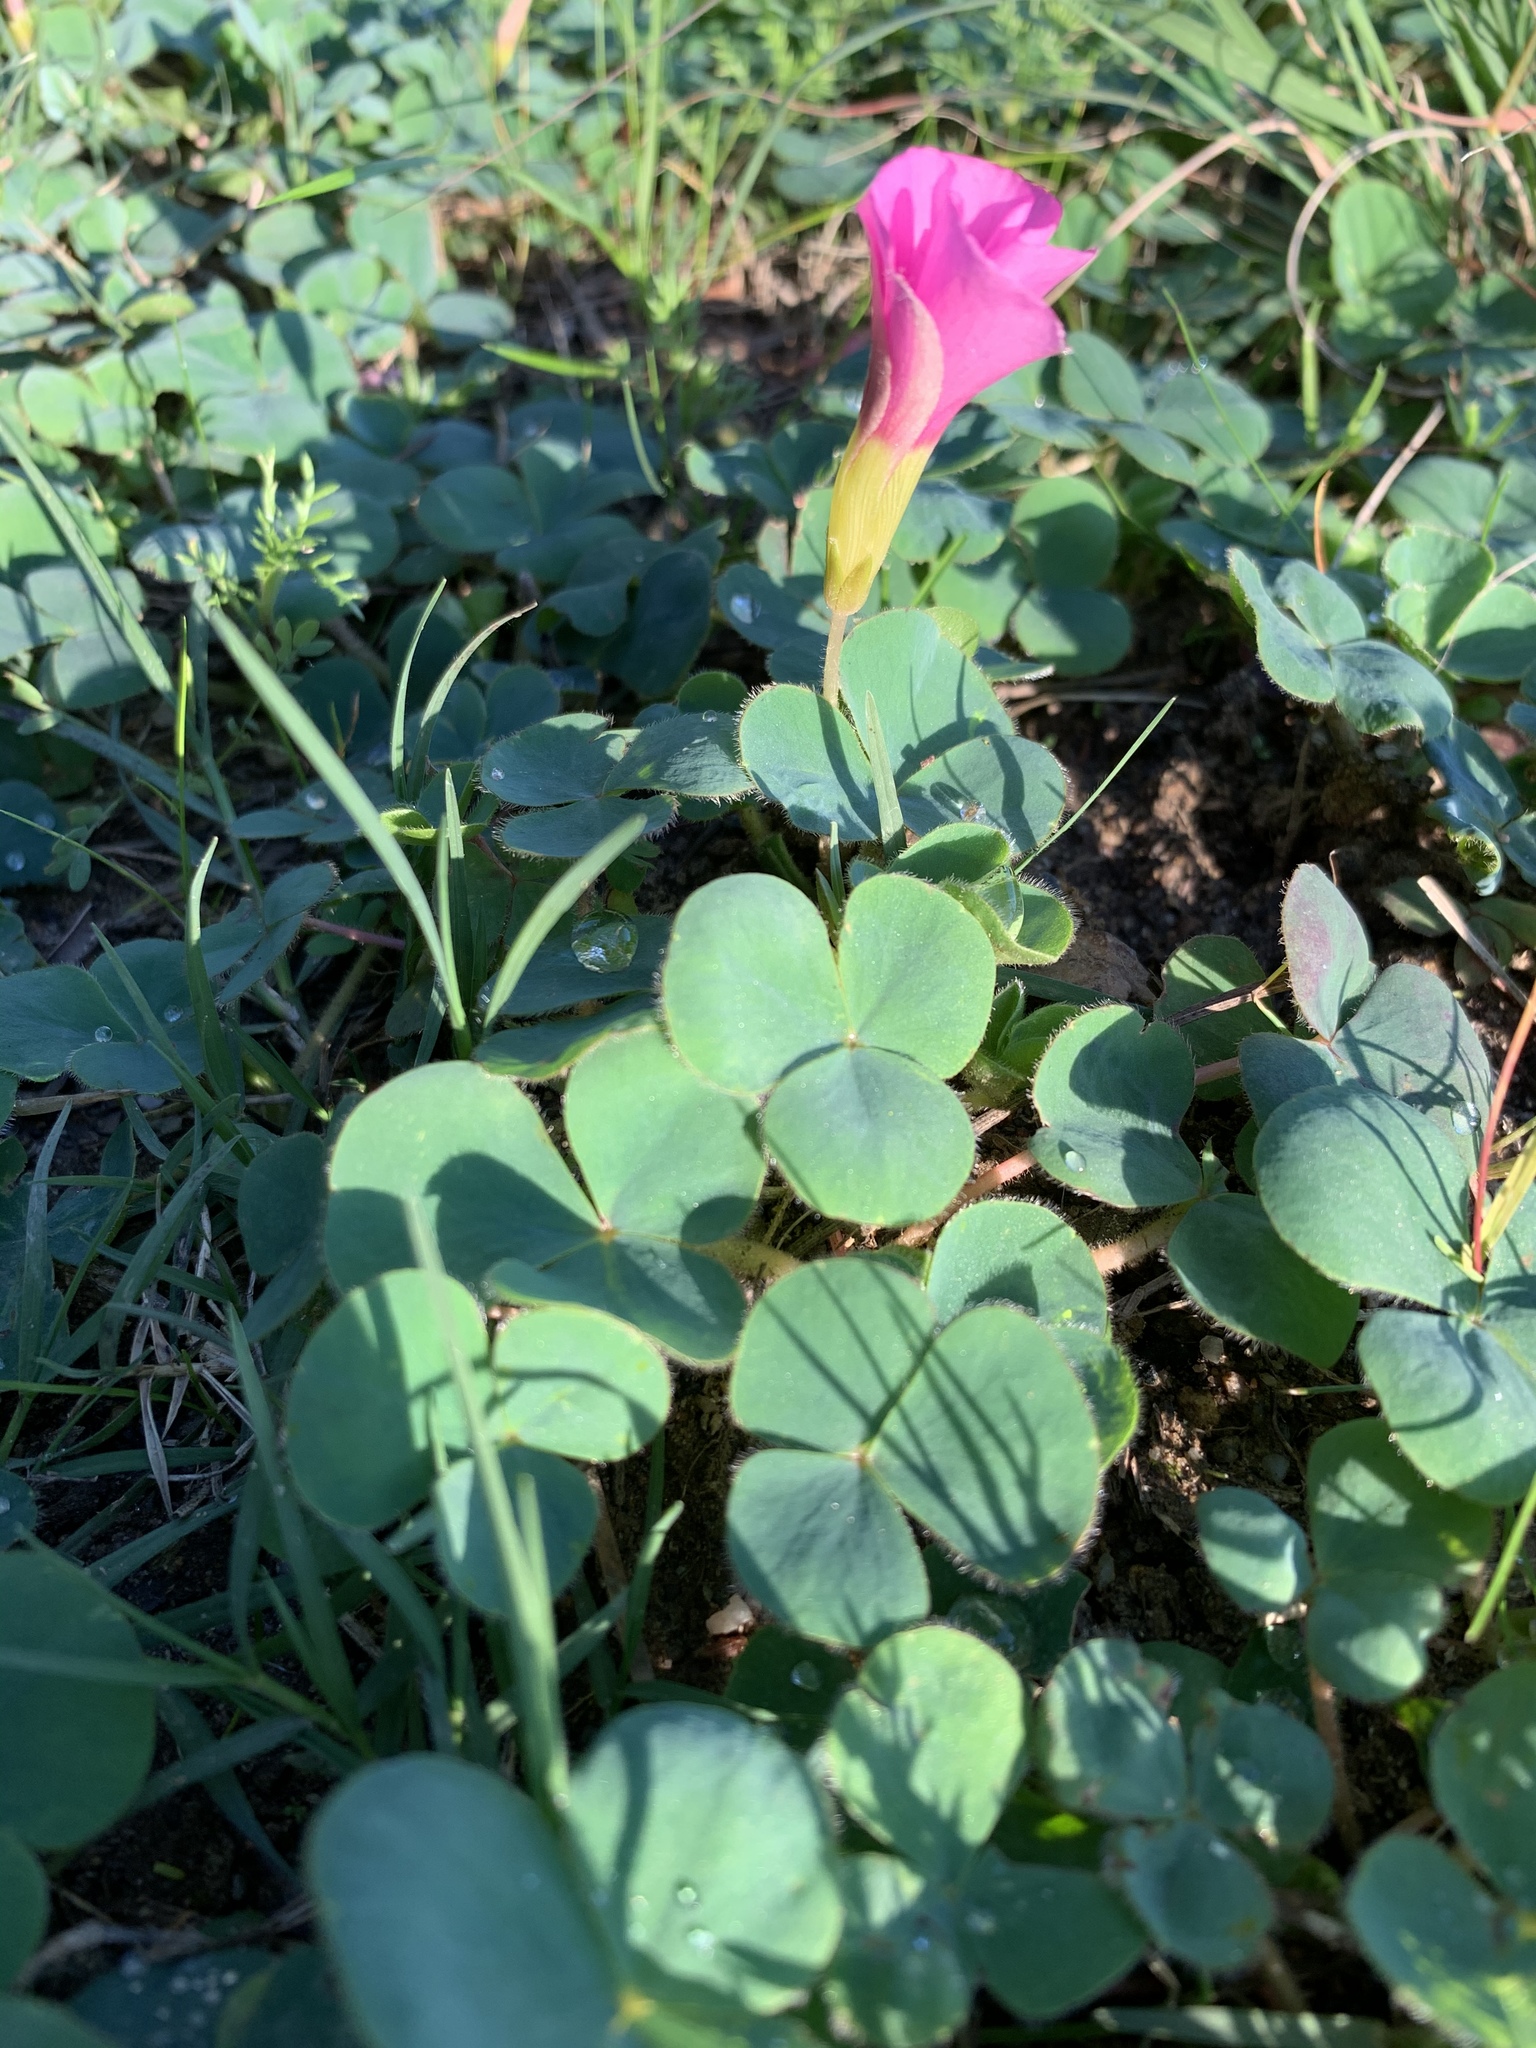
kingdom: Plantae
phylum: Tracheophyta
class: Magnoliopsida
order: Oxalidales
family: Oxalidaceae
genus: Oxalis
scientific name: Oxalis purpurea
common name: Purple woodsorrel
